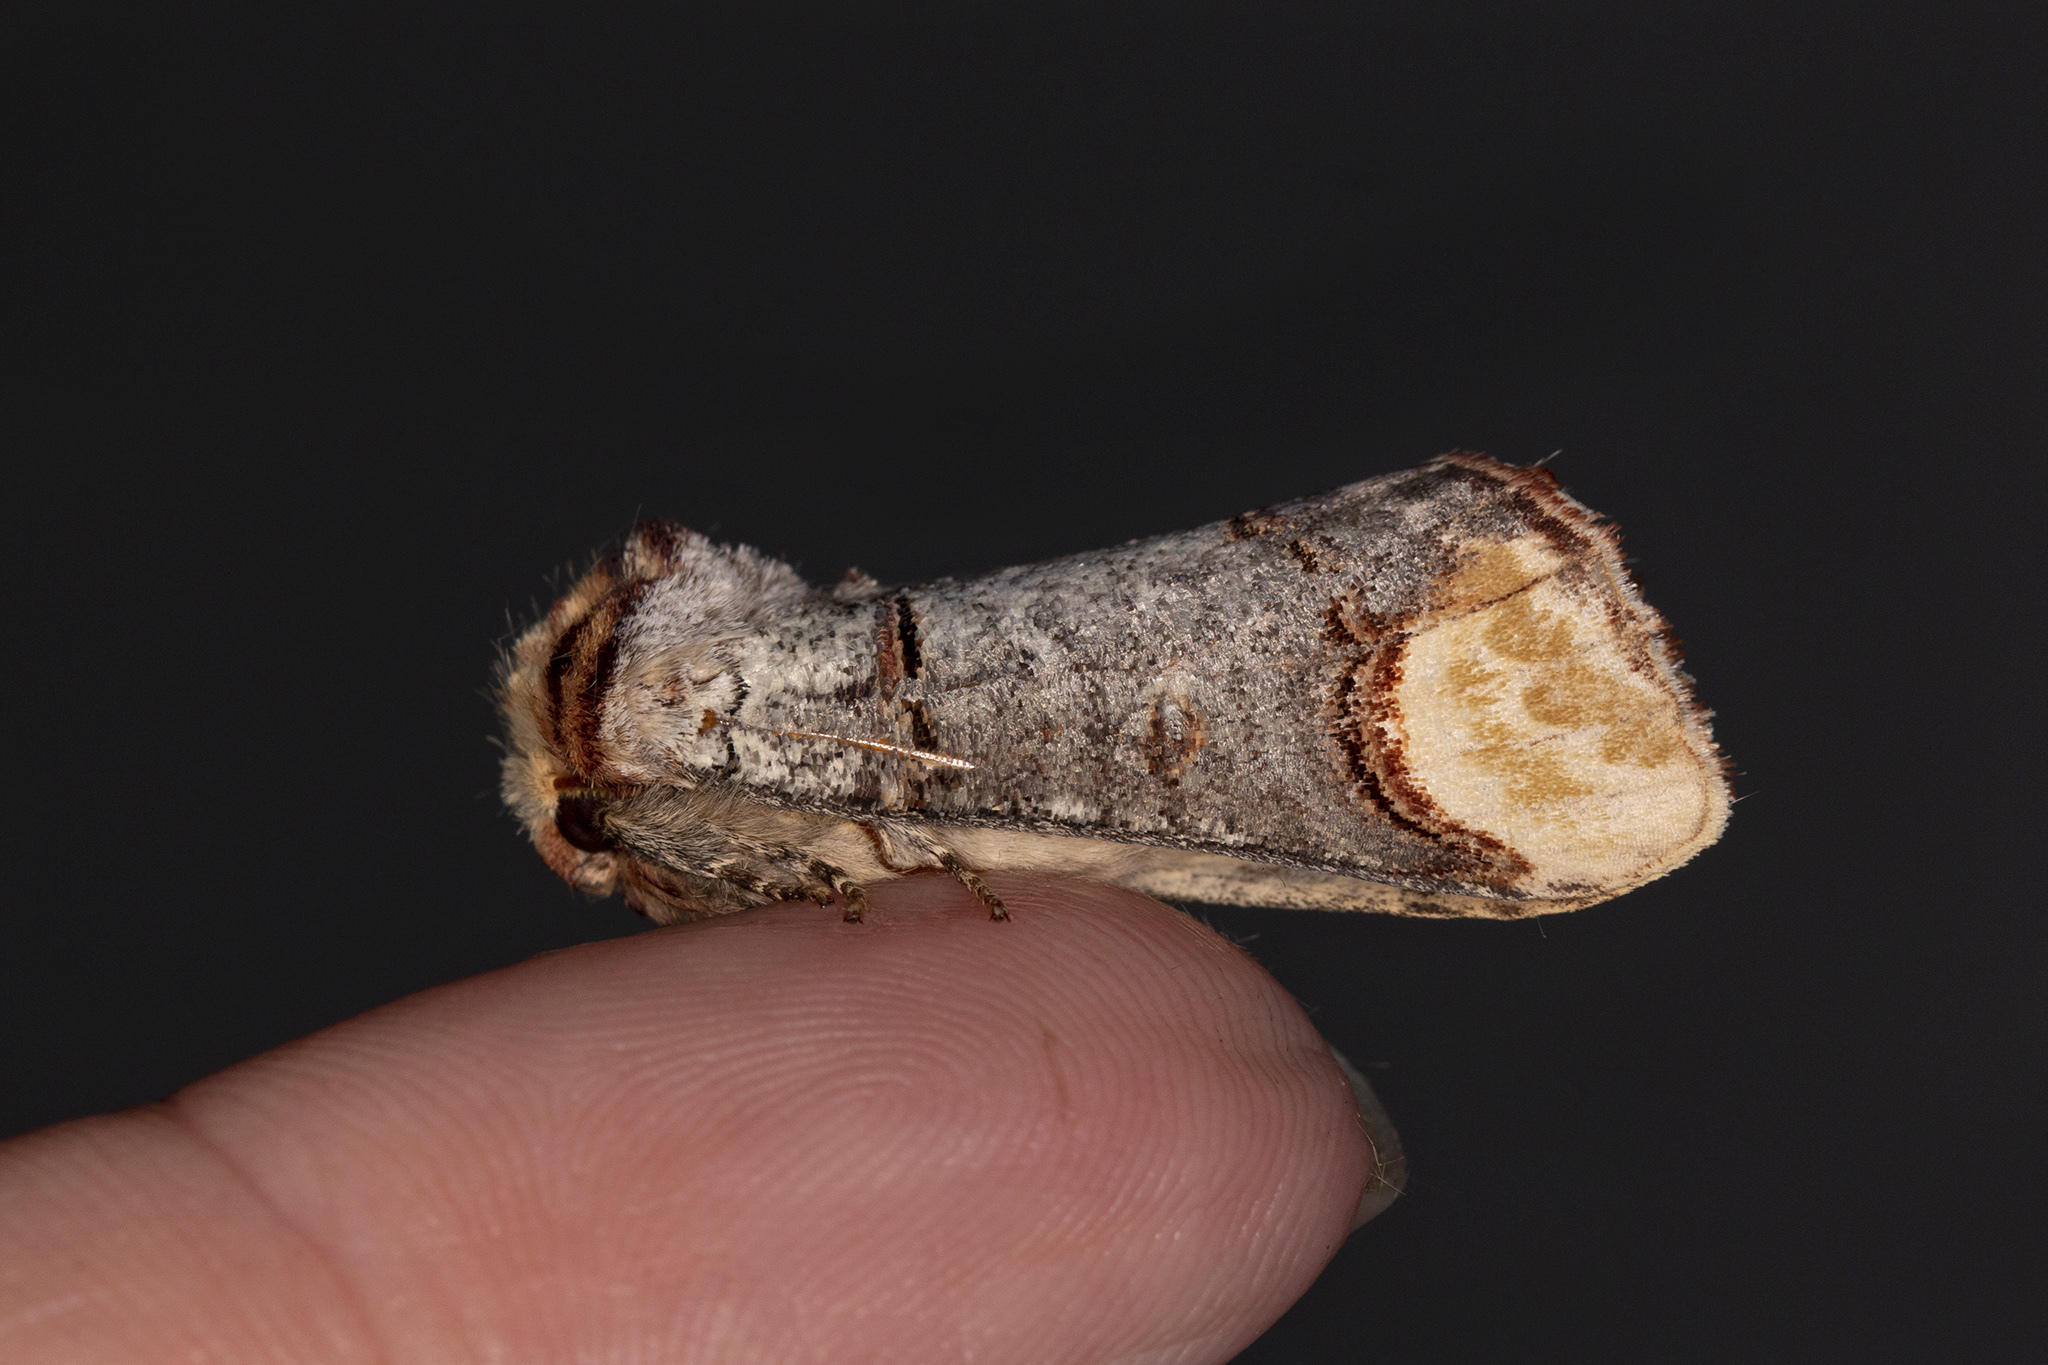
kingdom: Animalia
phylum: Arthropoda
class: Insecta
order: Lepidoptera
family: Notodontidae
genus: Phalera
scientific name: Phalera bucephala
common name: Buff-tip
